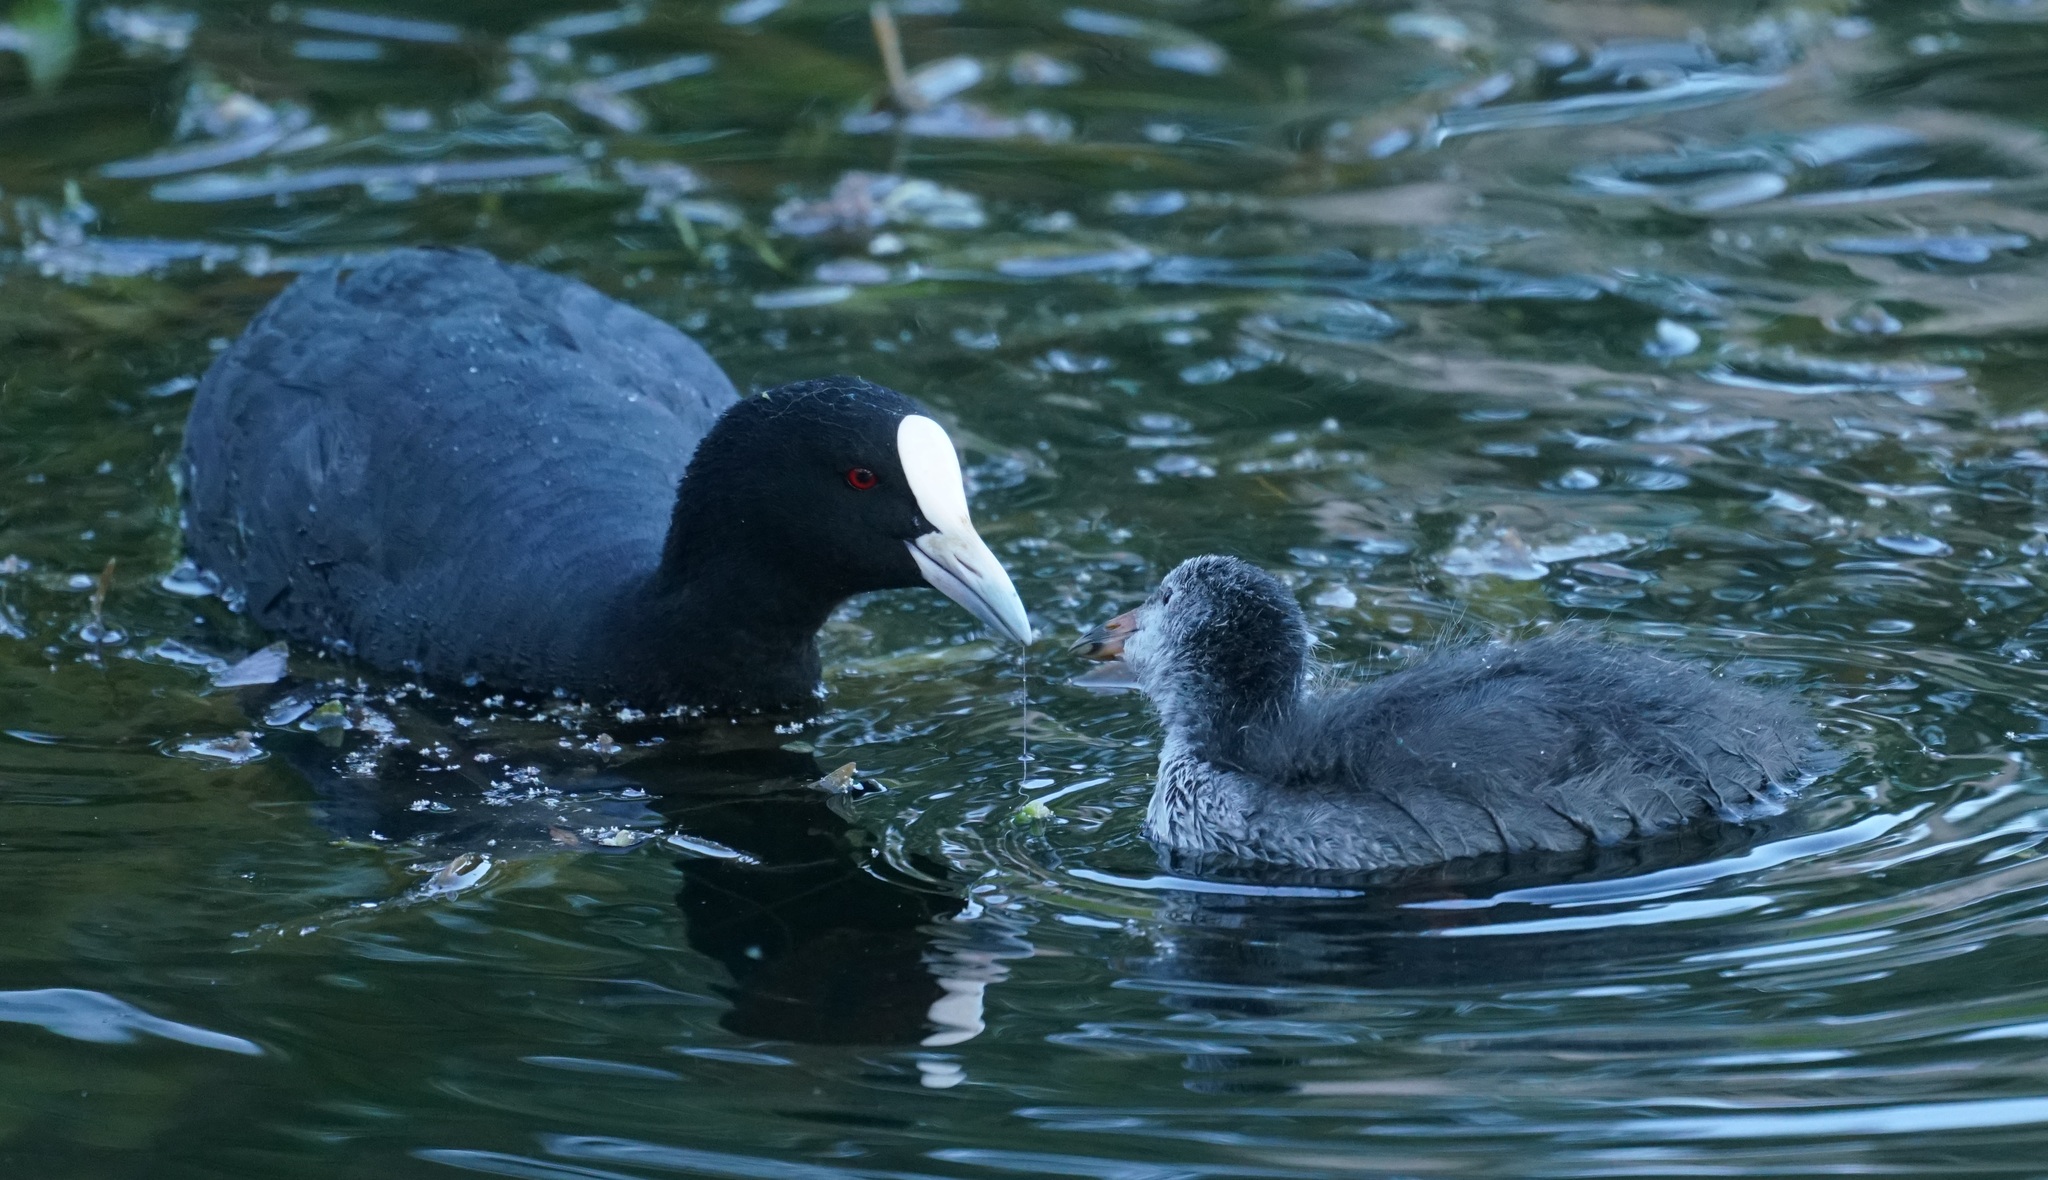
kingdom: Animalia
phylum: Chordata
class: Aves
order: Gruiformes
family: Rallidae
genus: Fulica
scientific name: Fulica atra
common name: Eurasian coot
